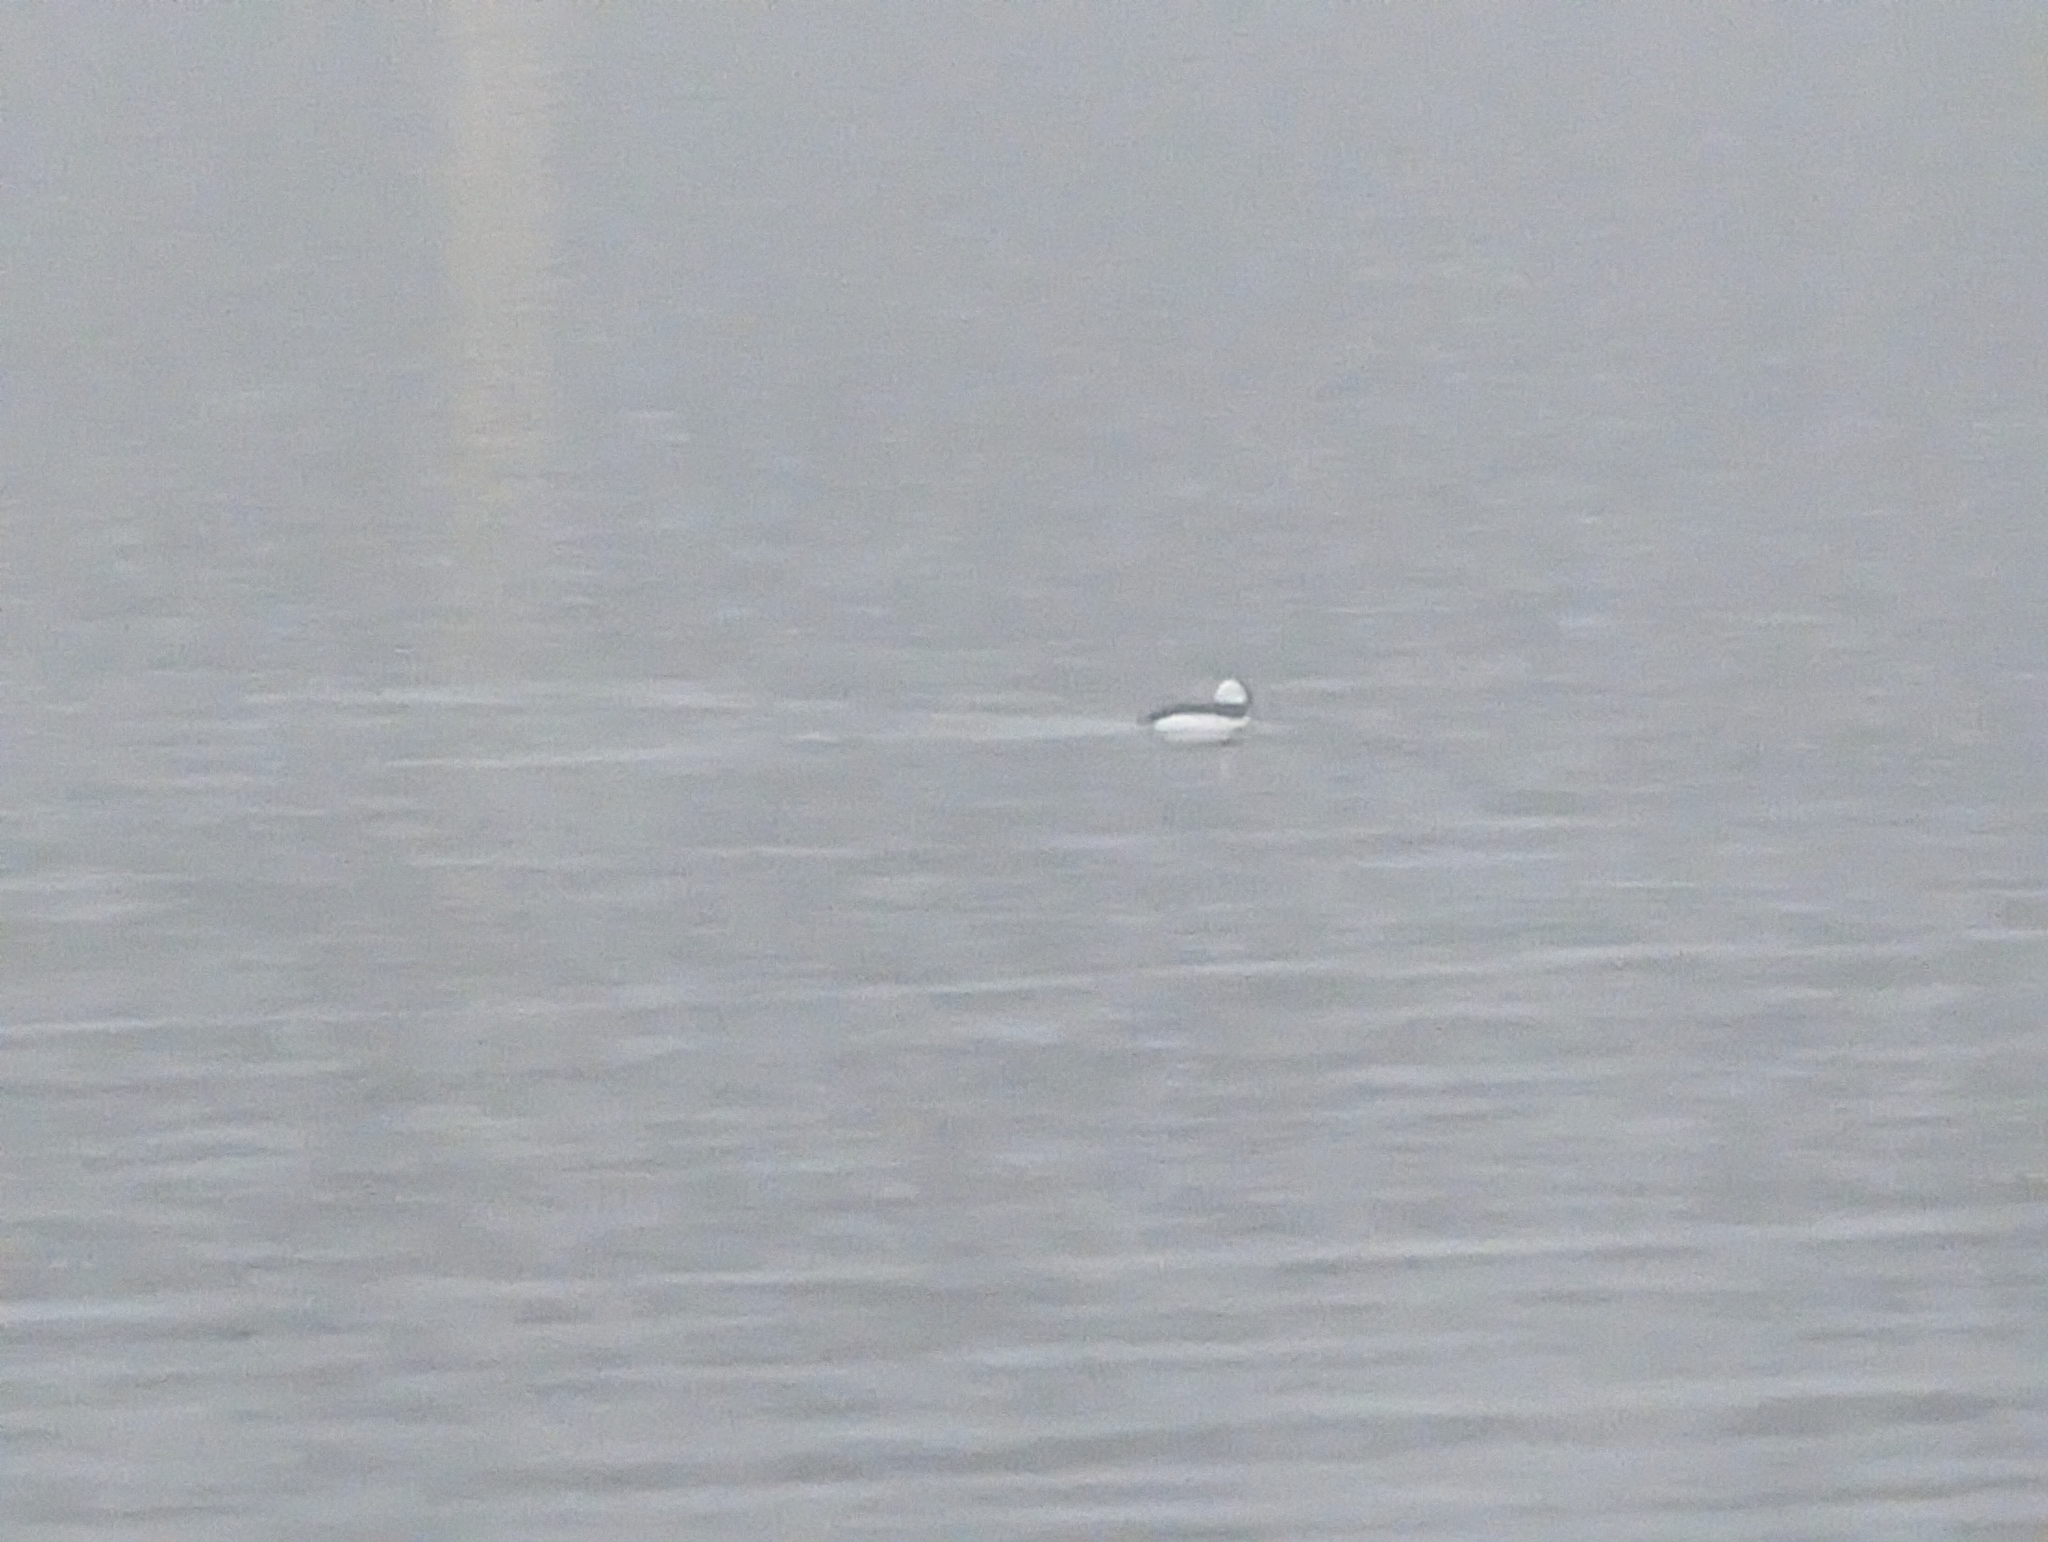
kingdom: Animalia
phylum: Chordata
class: Aves
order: Anseriformes
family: Anatidae
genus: Bucephala
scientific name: Bucephala albeola
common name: Bufflehead
